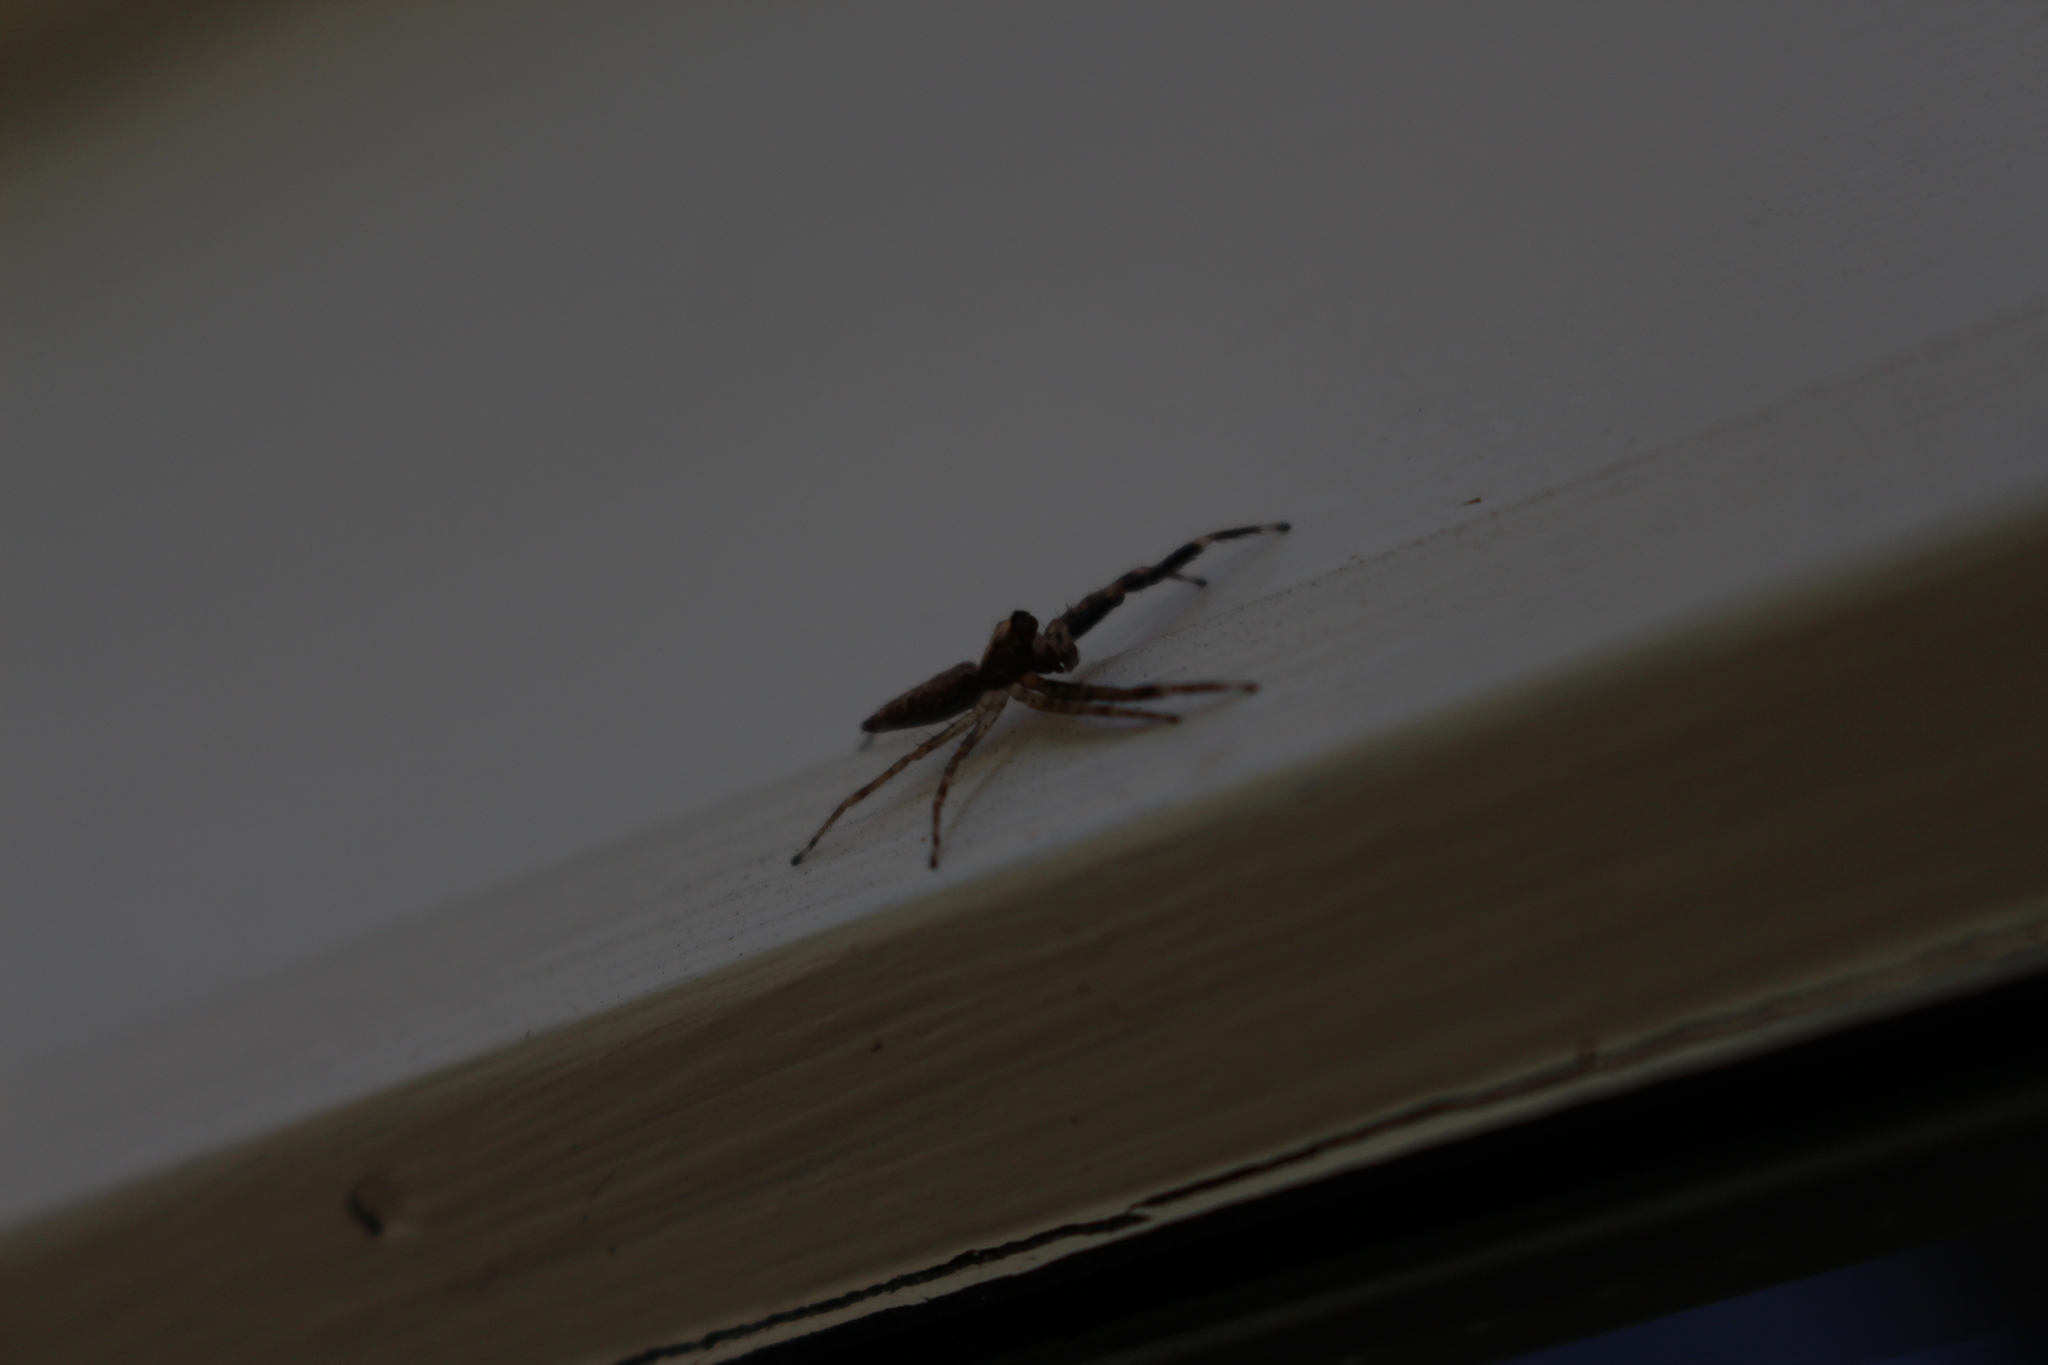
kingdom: Animalia
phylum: Arthropoda
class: Arachnida
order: Araneae
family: Salticidae
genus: Helpis
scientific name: Helpis minitabunda
